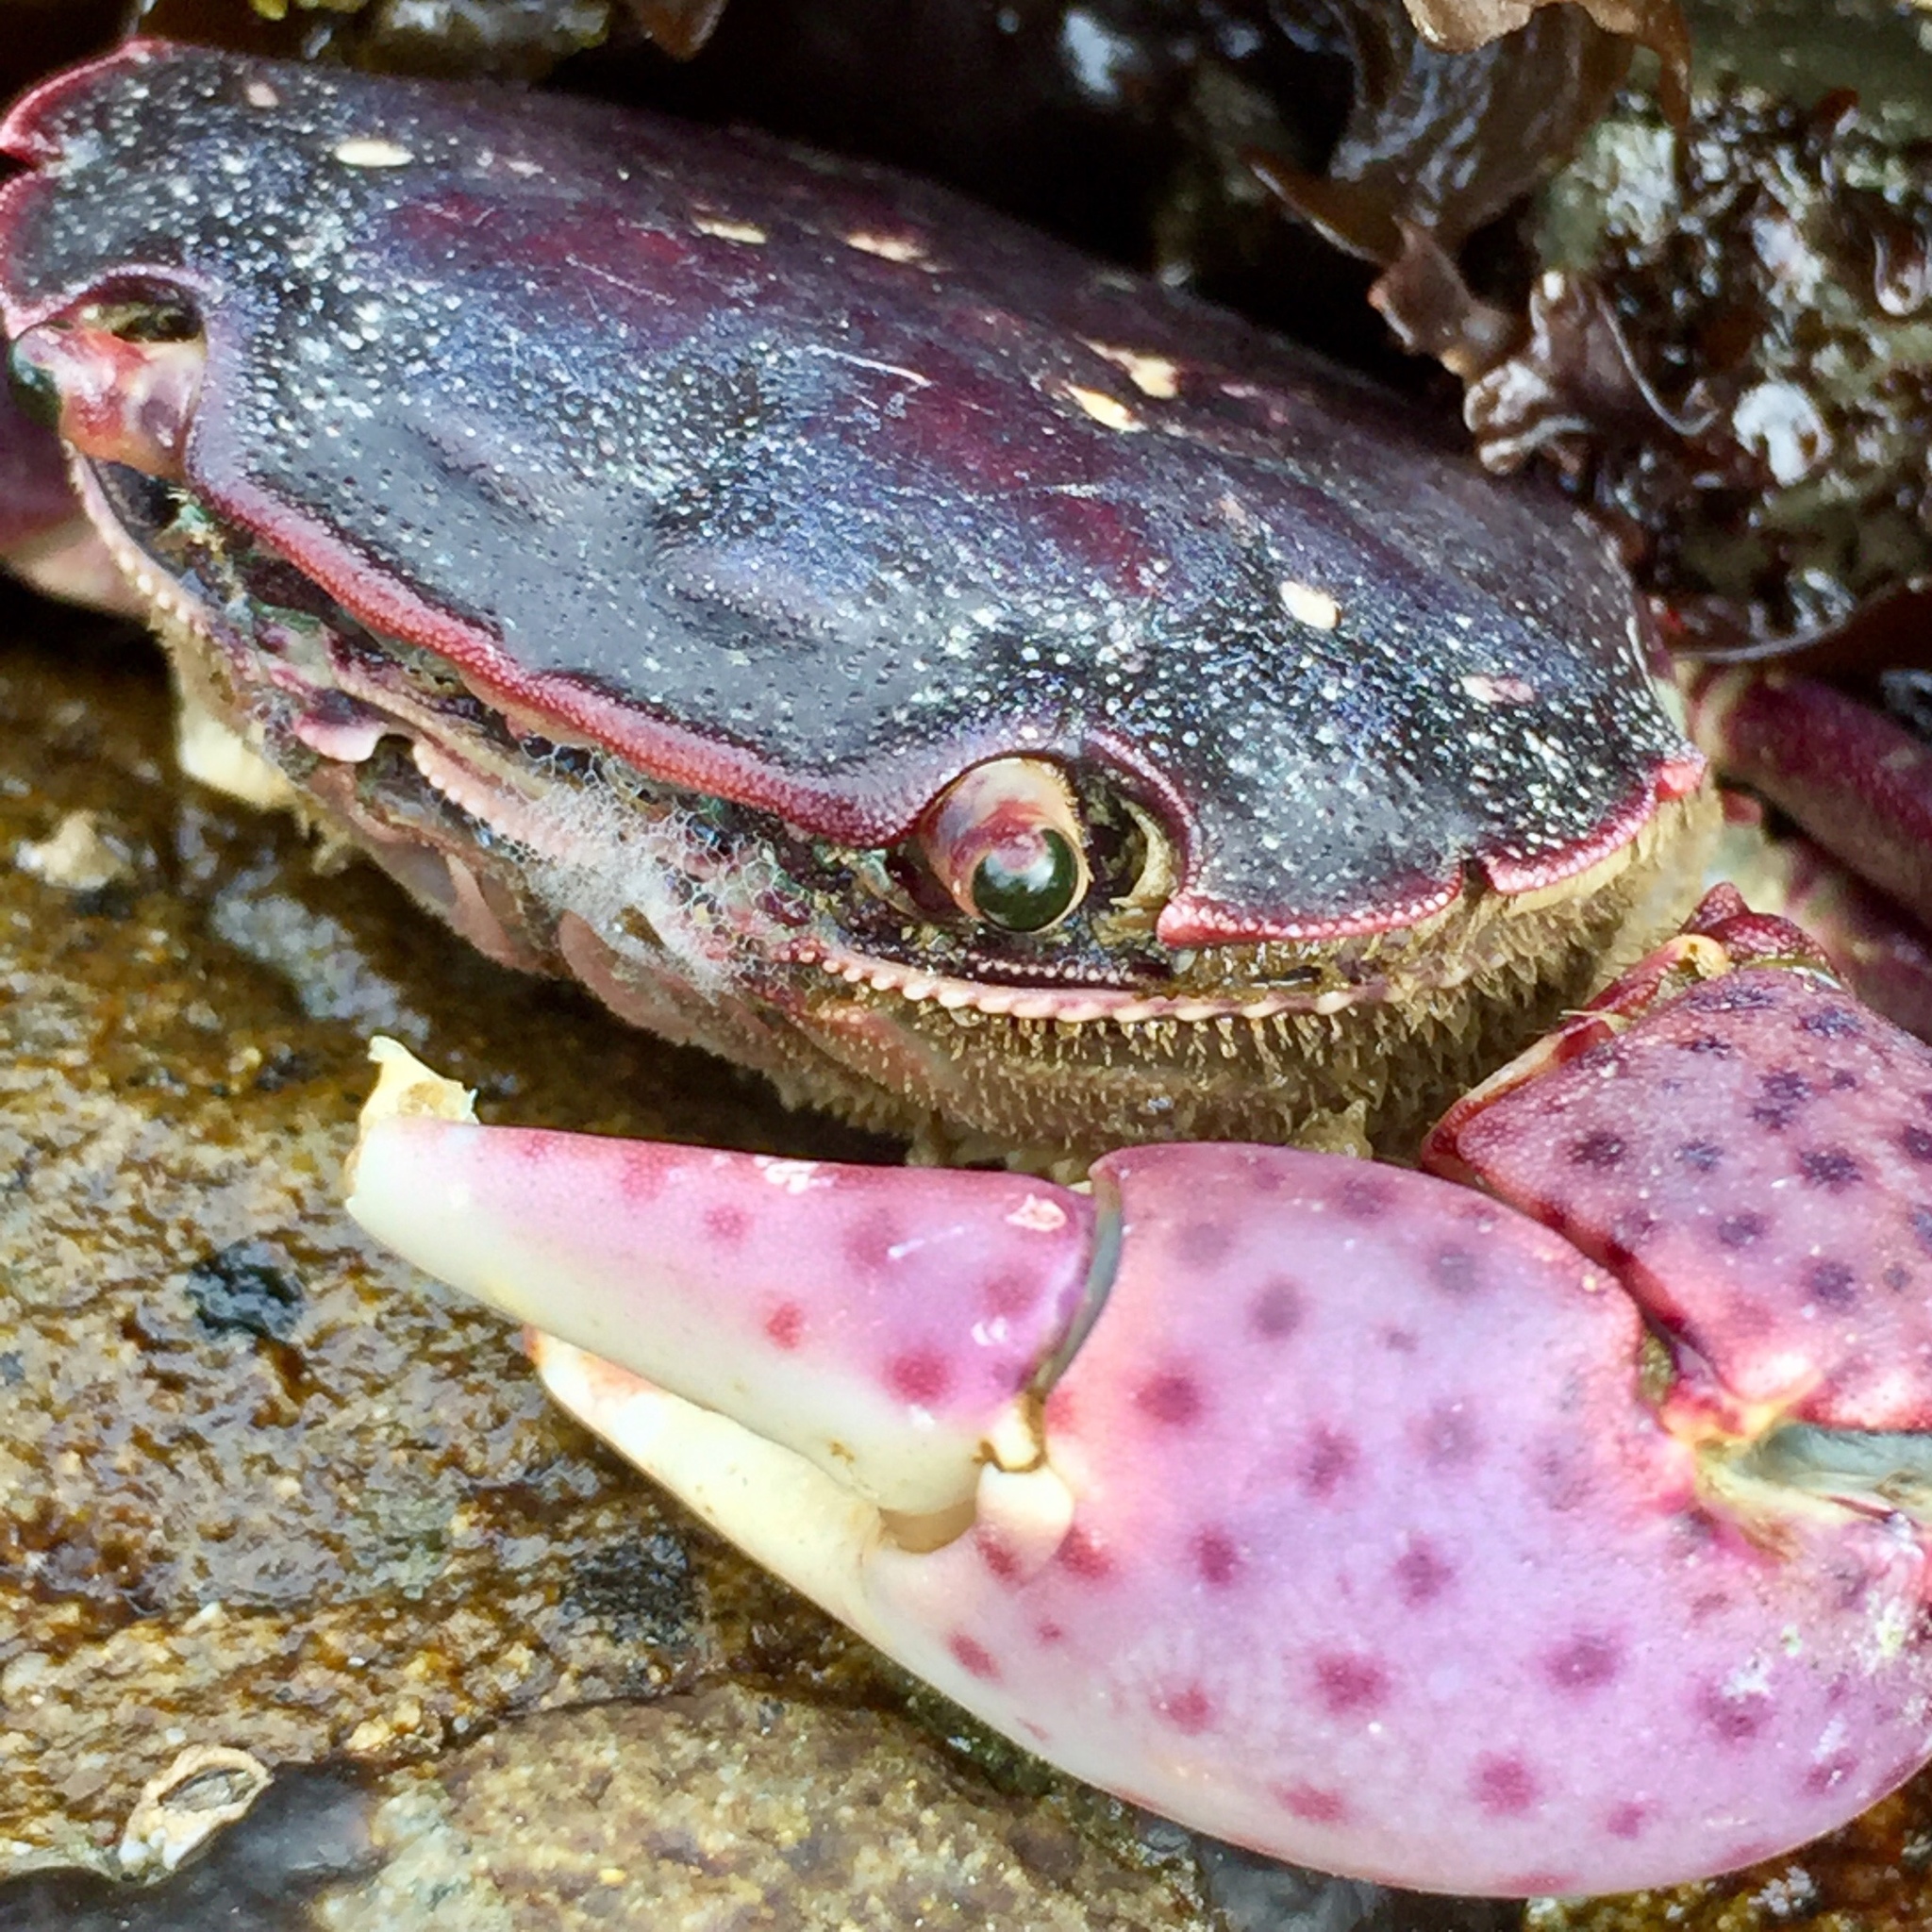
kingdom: Animalia
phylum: Arthropoda
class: Malacostraca
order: Decapoda
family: Varunidae
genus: Hemigrapsus
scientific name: Hemigrapsus nudus
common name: Purple shore crab
